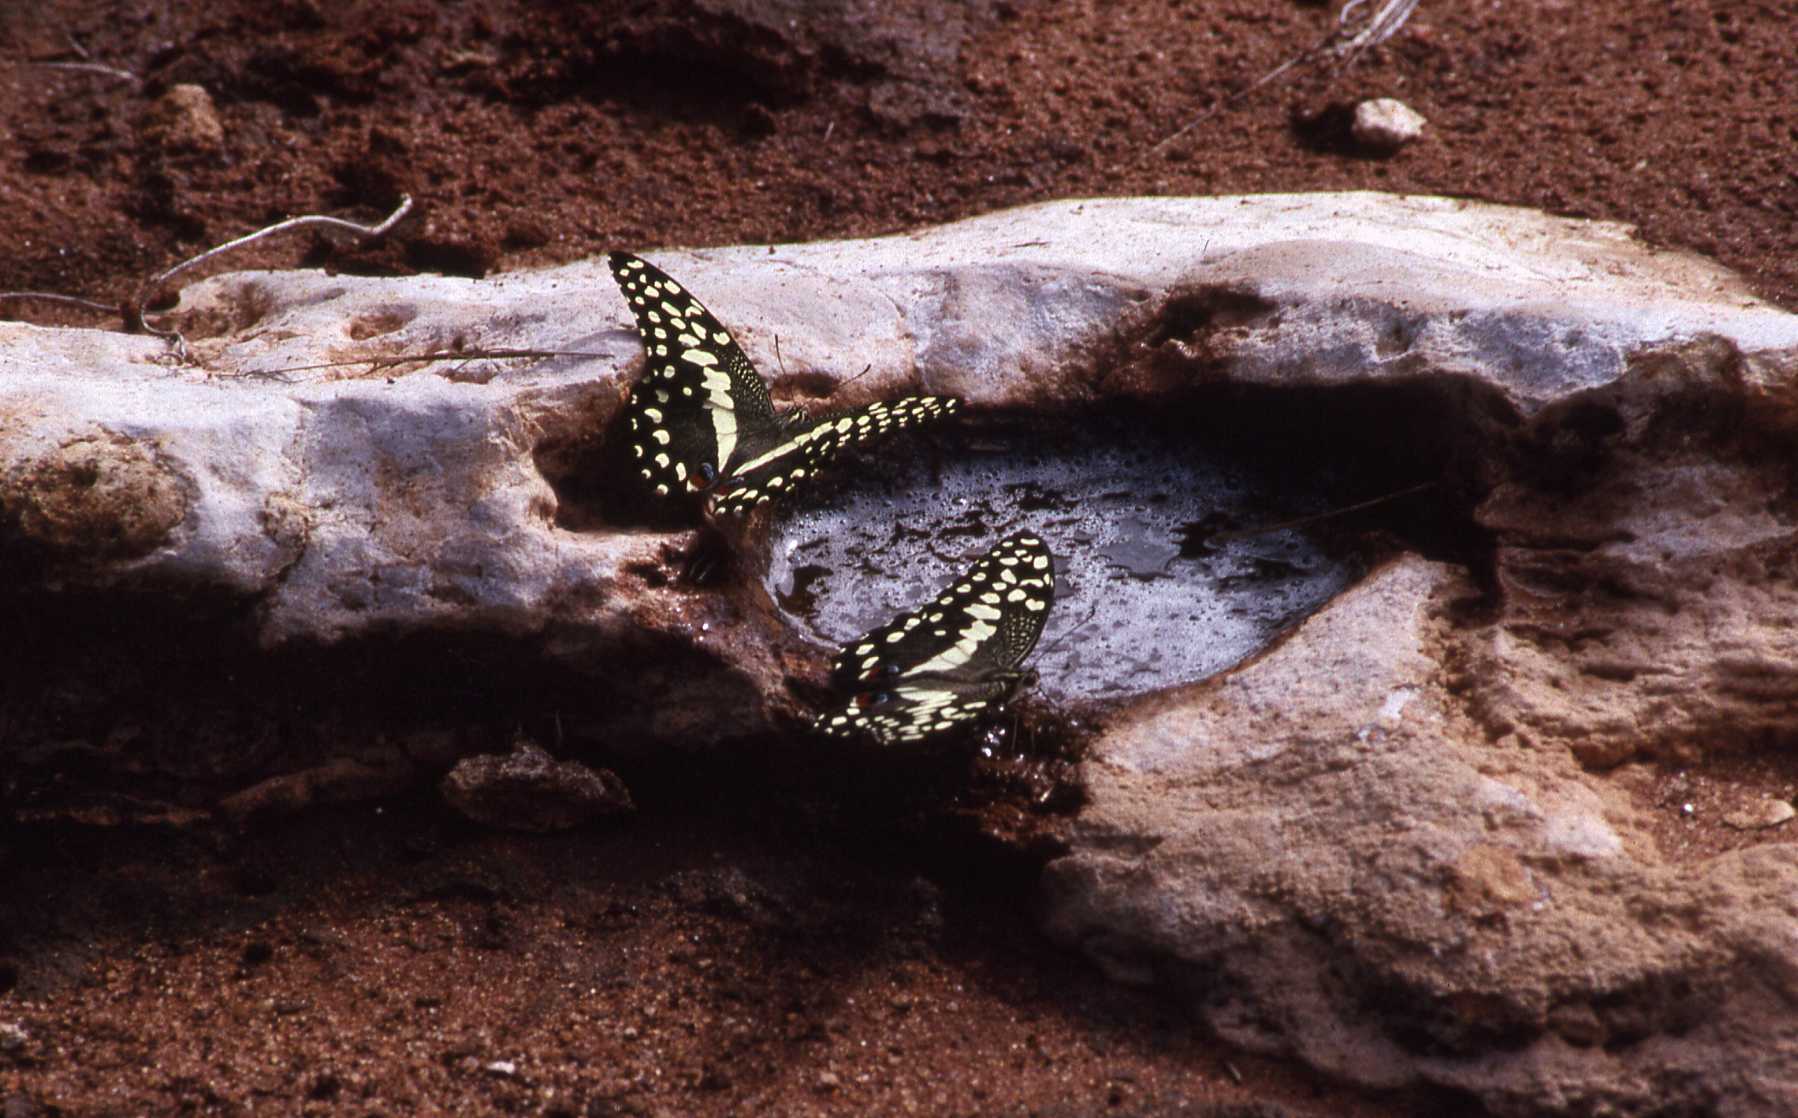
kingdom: Animalia
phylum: Arthropoda
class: Insecta
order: Lepidoptera
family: Papilionidae
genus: Papilio
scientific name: Papilio demodocus
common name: Christmas butterfly
